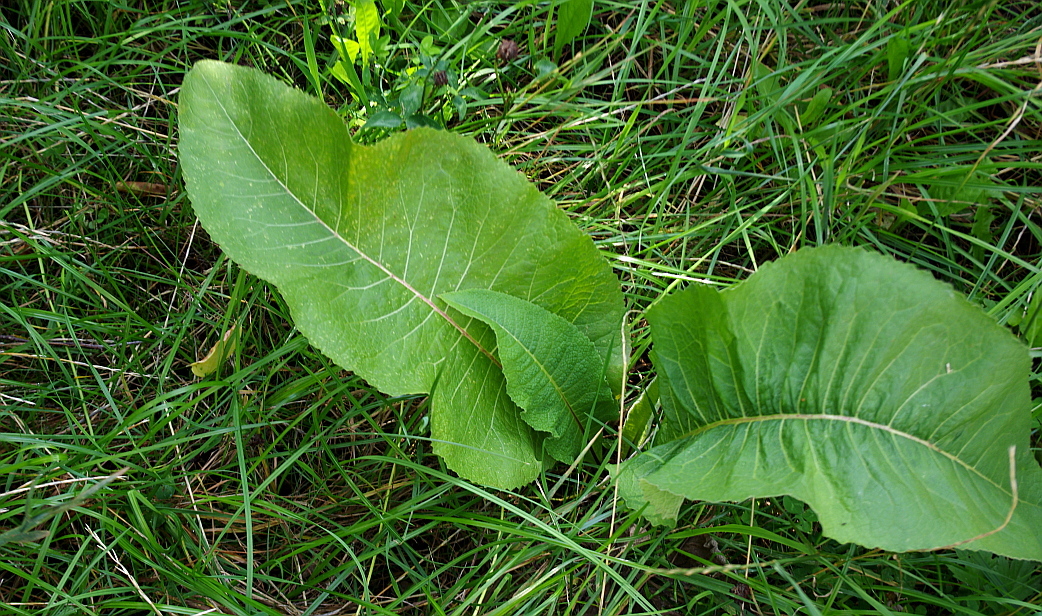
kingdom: Plantae
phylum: Tracheophyta
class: Magnoliopsida
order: Brassicales
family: Brassicaceae
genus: Armoracia
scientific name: Armoracia rusticana
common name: Horseradish
